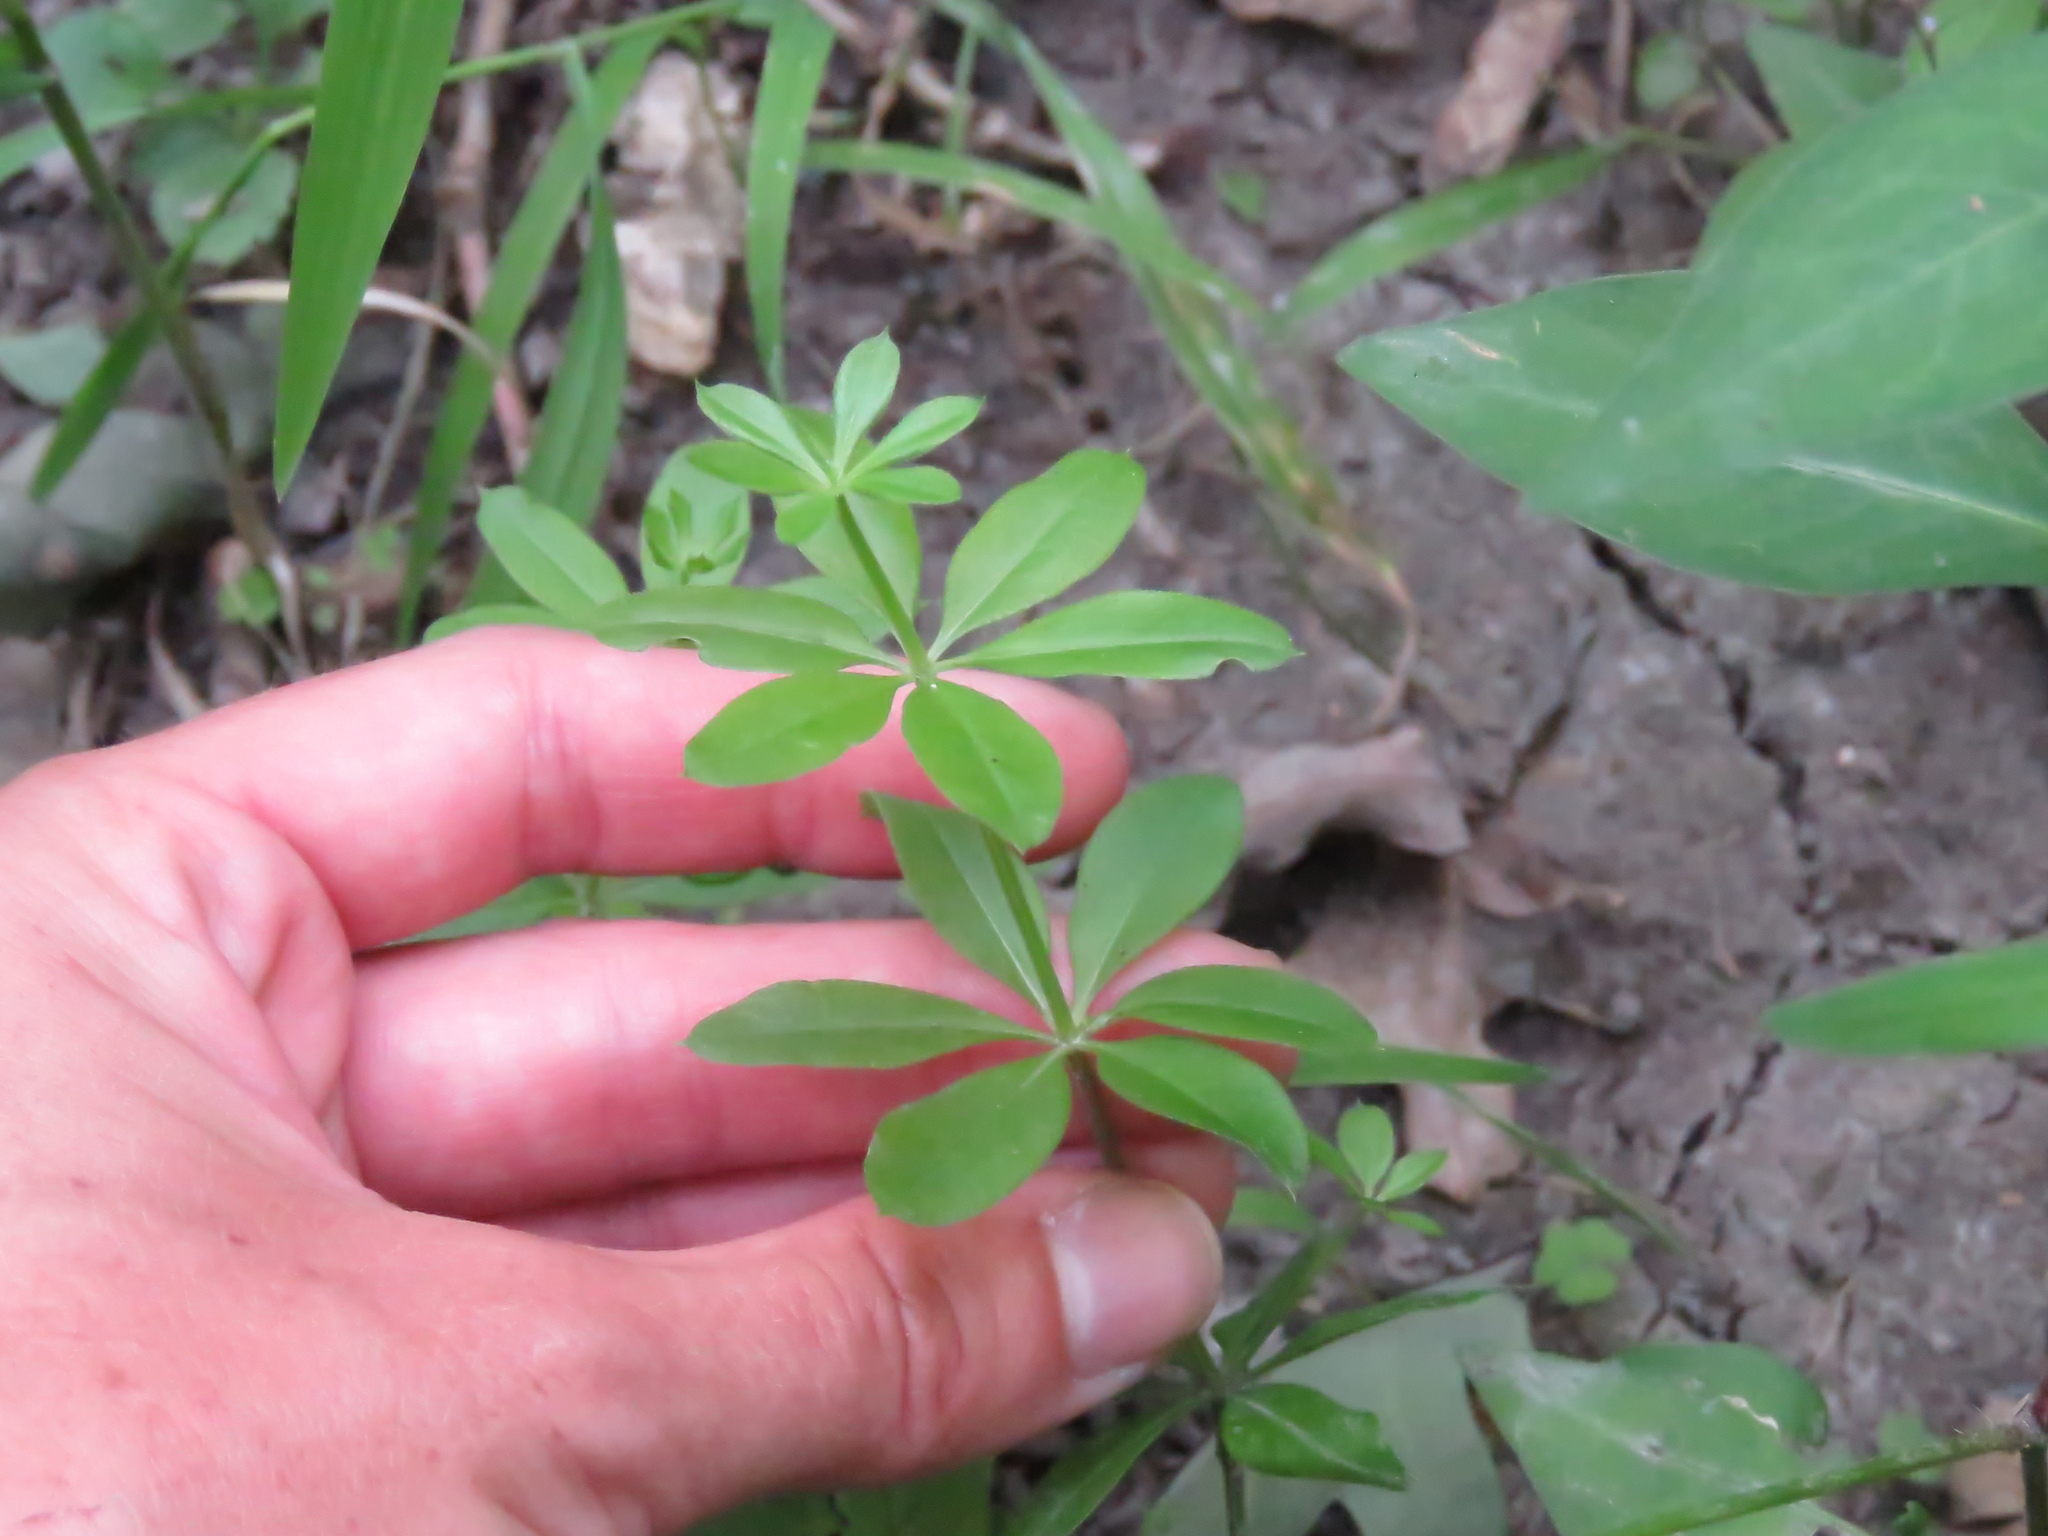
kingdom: Plantae
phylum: Tracheophyta
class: Magnoliopsida
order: Gentianales
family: Rubiaceae
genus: Galium
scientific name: Galium triflorum
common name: Fragrant bedstraw
